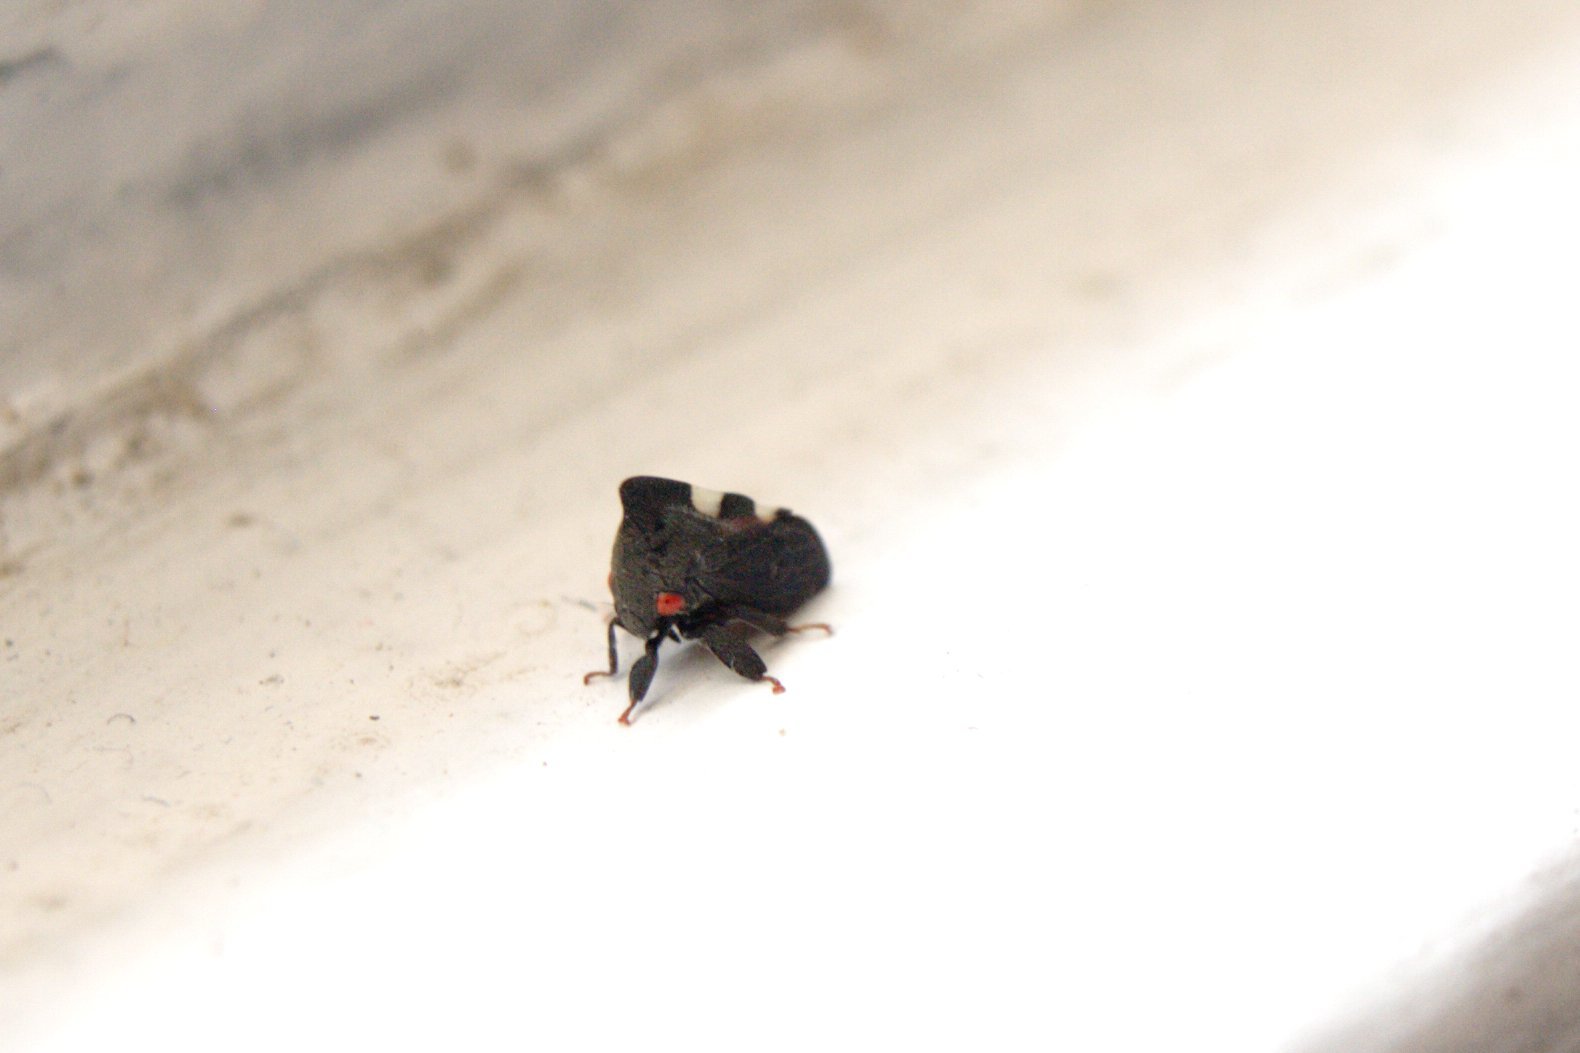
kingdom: Animalia
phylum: Arthropoda
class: Insecta
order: Hemiptera
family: Membracidae
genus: Enchenopa
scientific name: Enchenopa quadricolor
